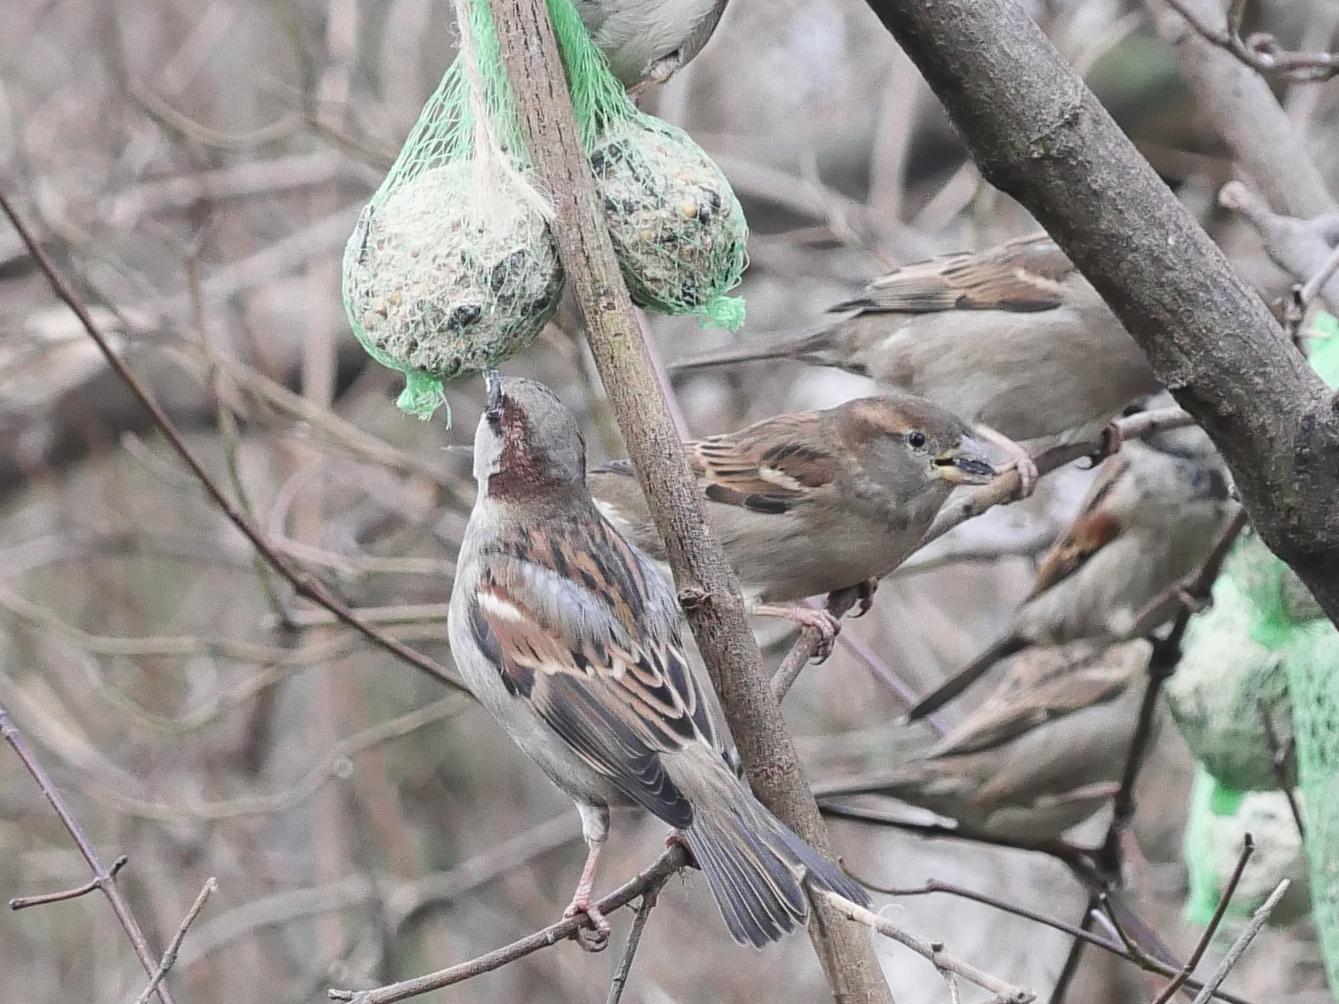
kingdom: Animalia
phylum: Chordata
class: Aves
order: Passeriformes
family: Passeridae
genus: Passer
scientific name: Passer domesticus
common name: House sparrow
